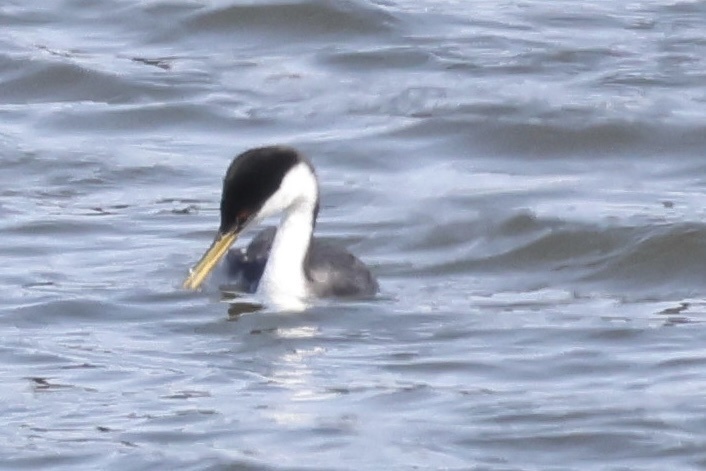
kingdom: Animalia
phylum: Chordata
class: Aves
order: Podicipediformes
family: Podicipedidae
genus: Aechmophorus
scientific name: Aechmophorus occidentalis
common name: Western grebe
